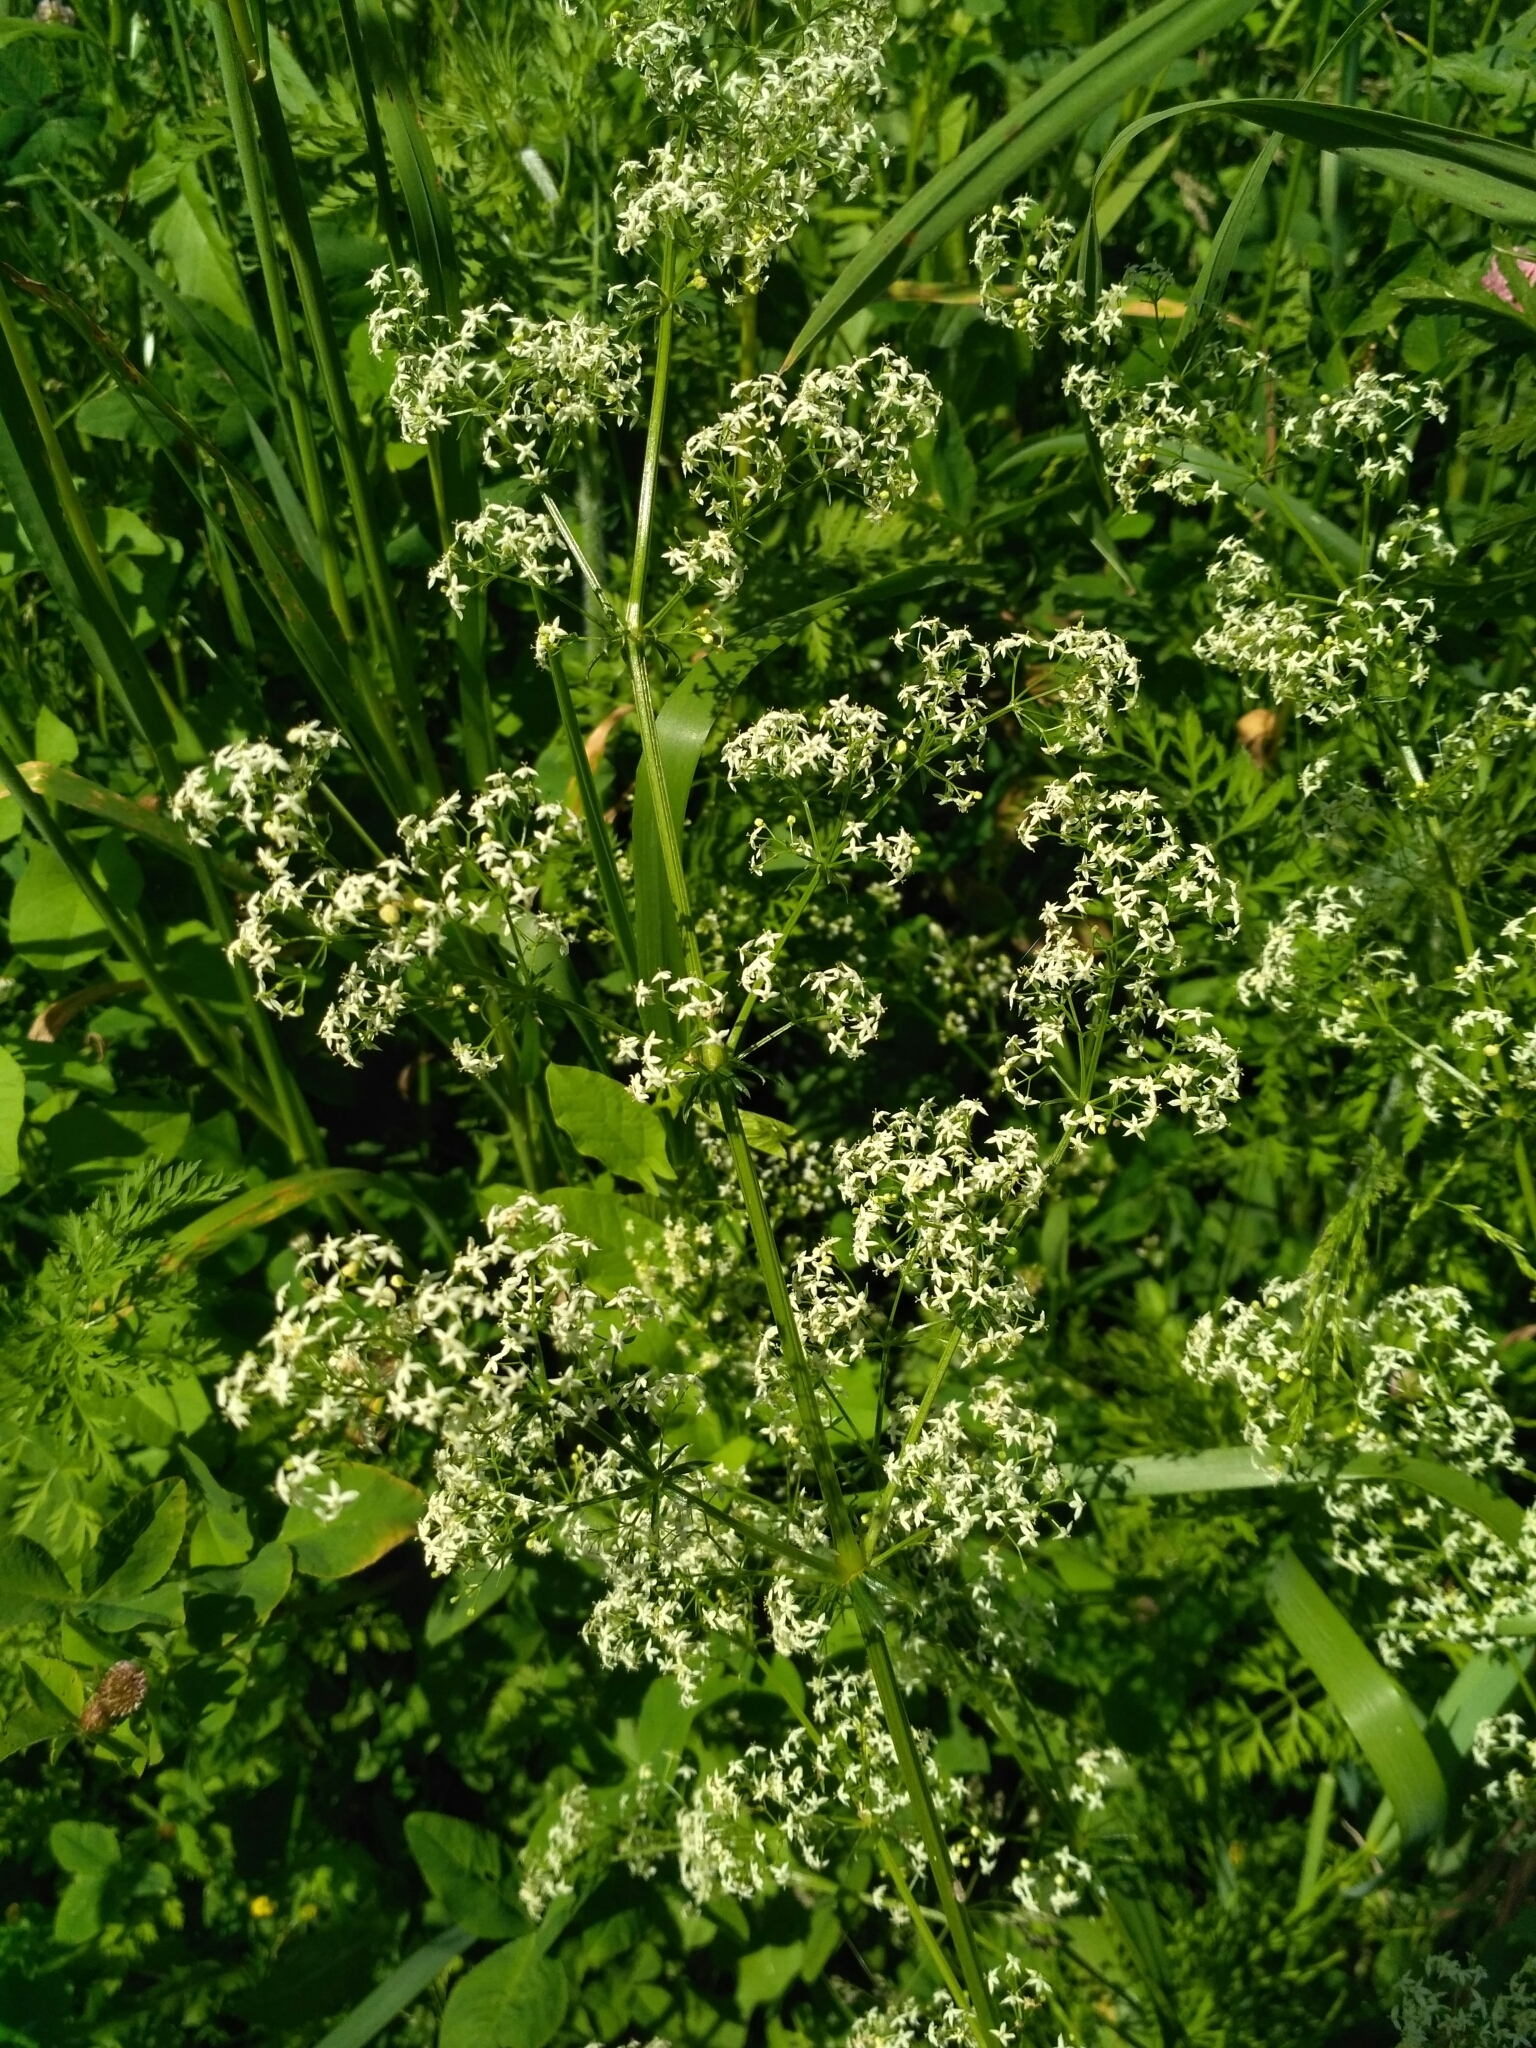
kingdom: Plantae
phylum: Tracheophyta
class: Magnoliopsida
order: Gentianales
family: Rubiaceae
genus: Galium
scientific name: Galium mollugo
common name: Hedge bedstraw
